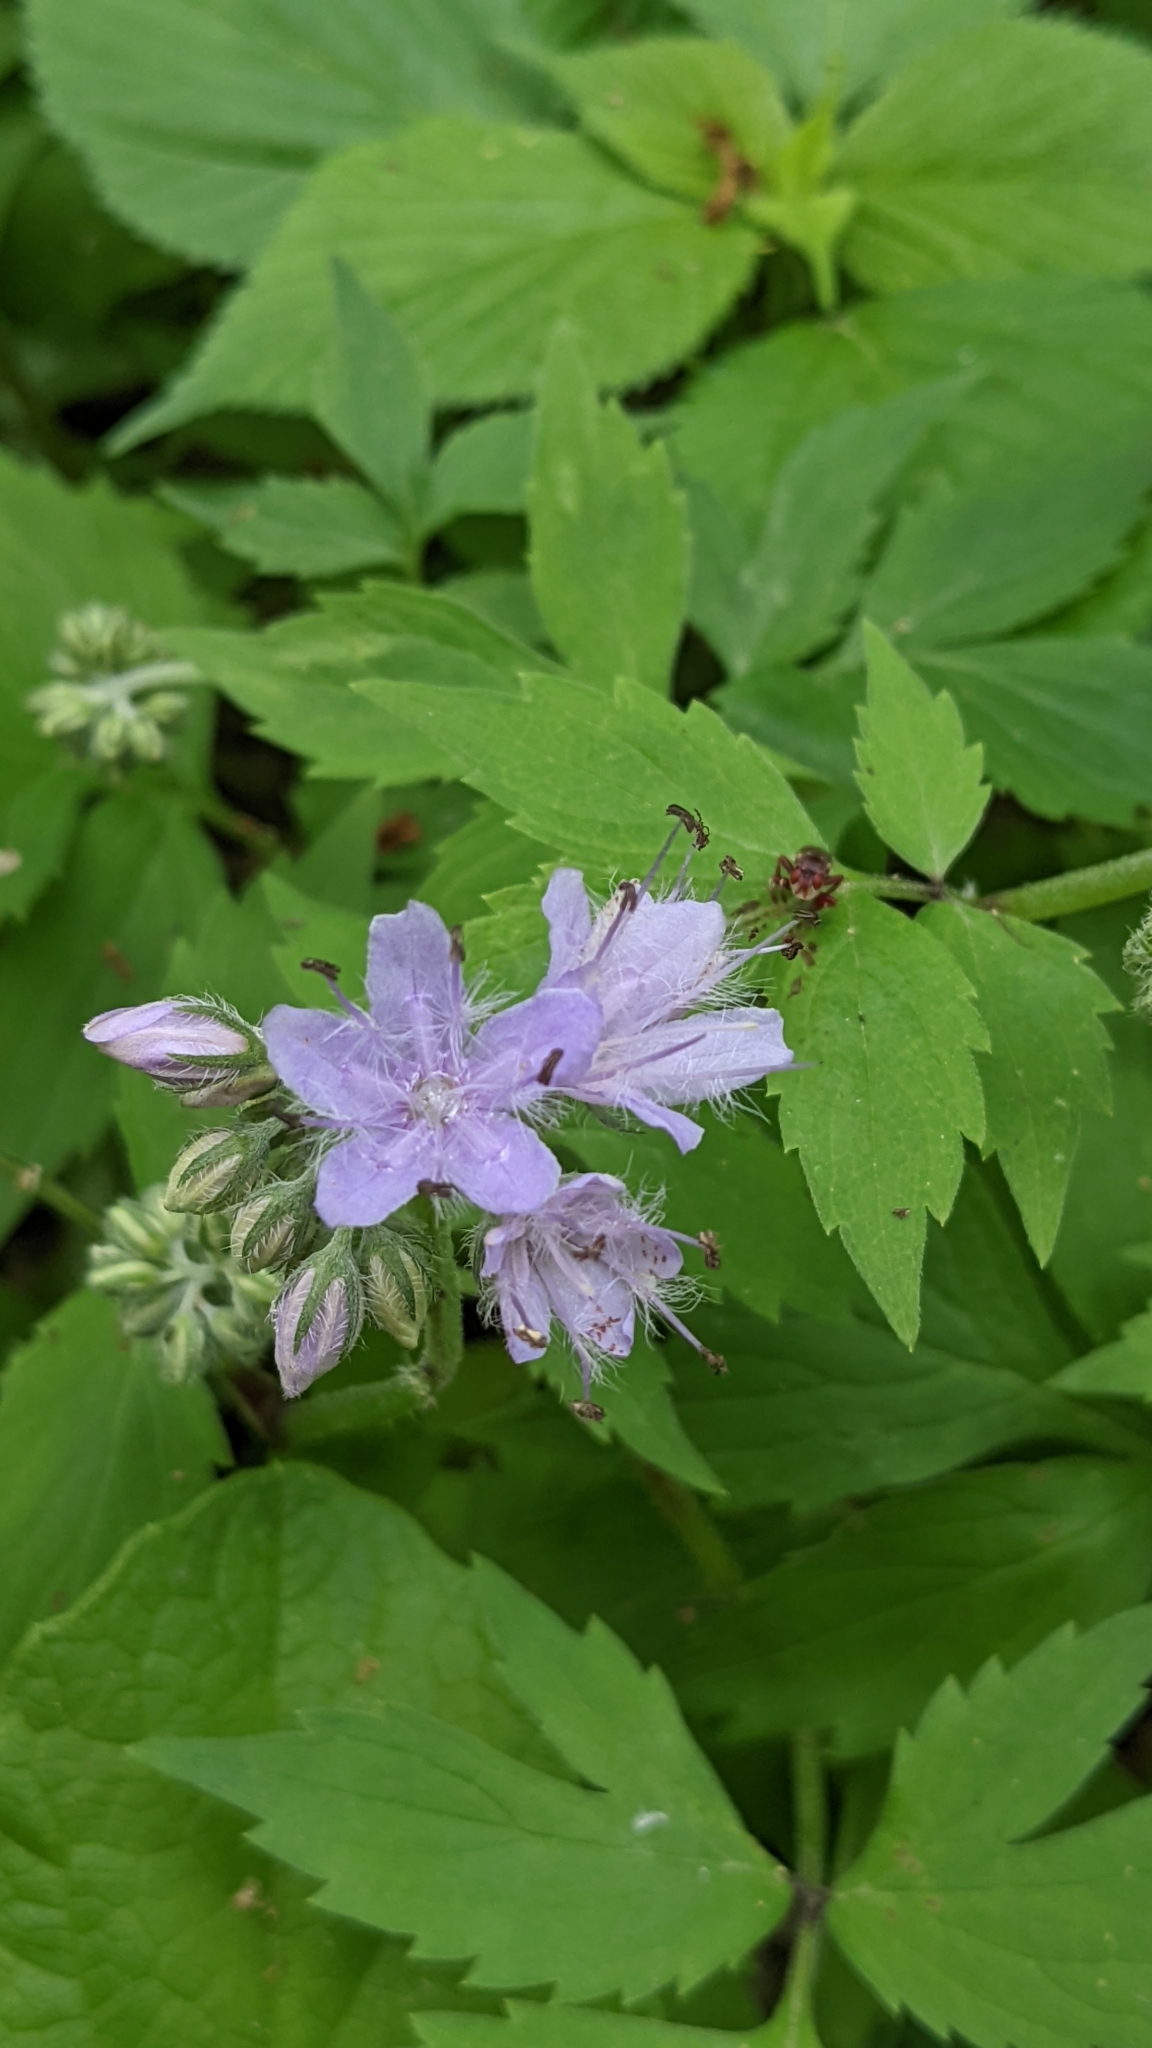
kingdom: Plantae
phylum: Tracheophyta
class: Magnoliopsida
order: Boraginales
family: Hydrophyllaceae
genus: Hydrophyllum
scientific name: Hydrophyllum virginianum
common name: Virginia waterleaf
